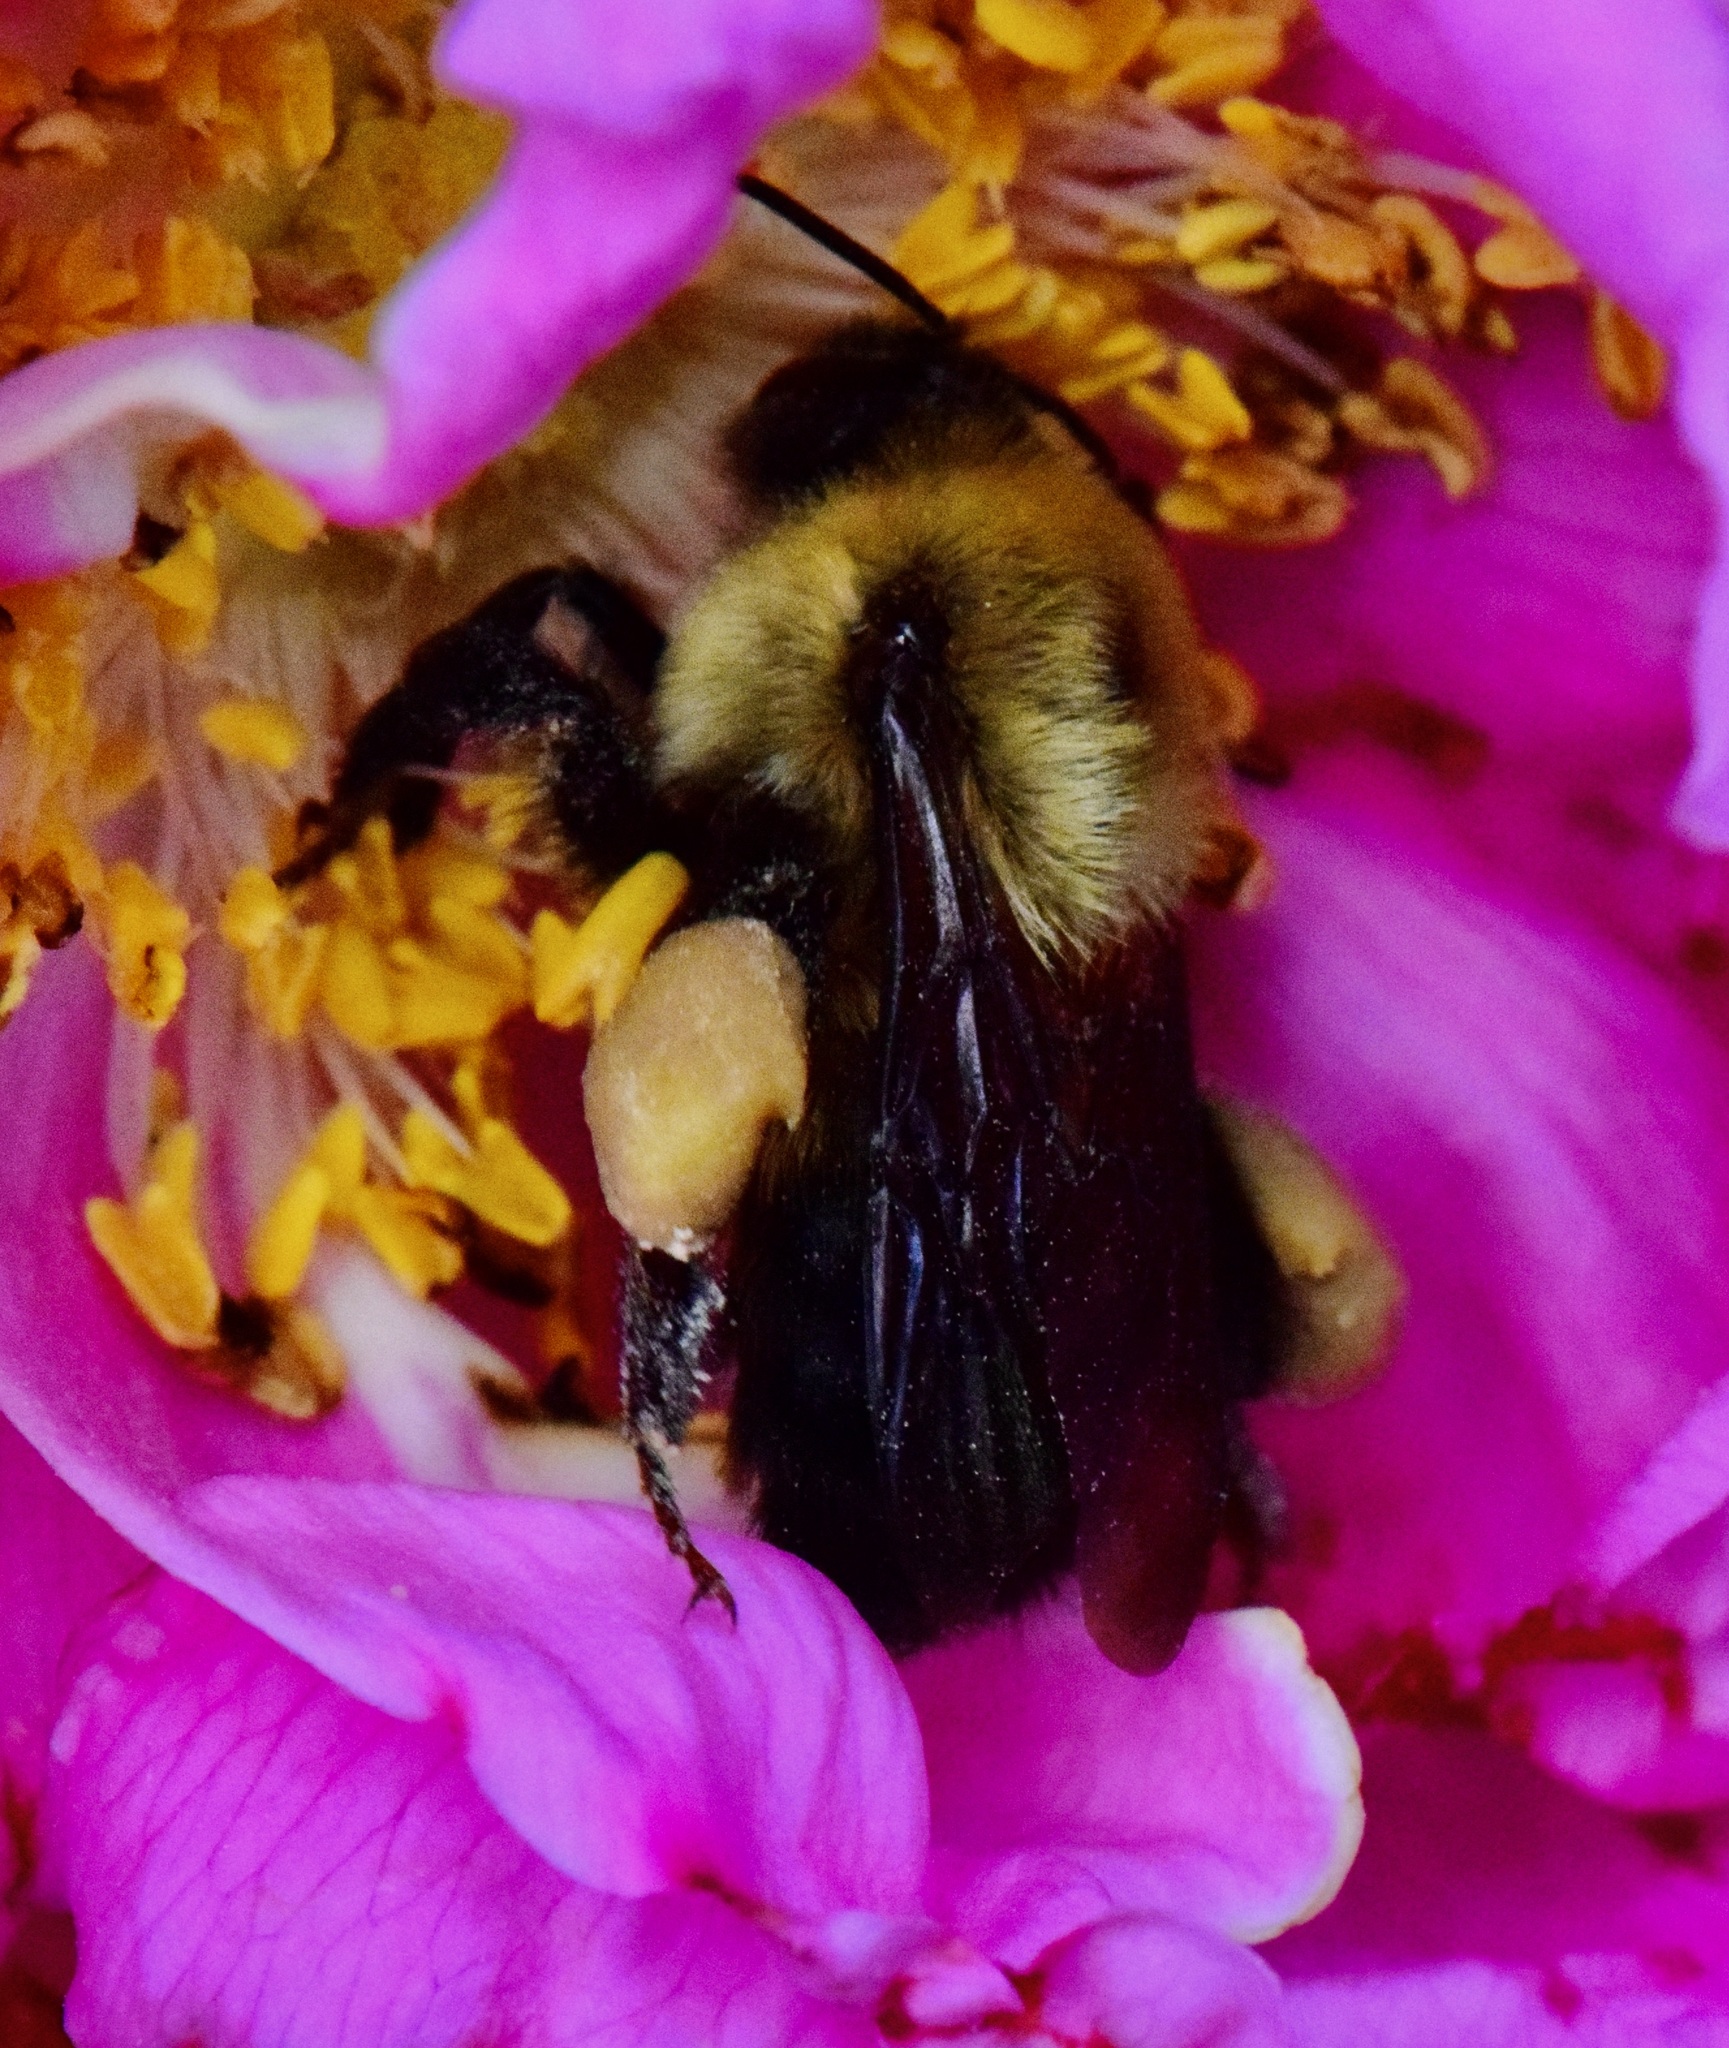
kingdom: Animalia
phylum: Arthropoda
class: Insecta
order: Hymenoptera
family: Apidae
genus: Bombus
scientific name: Bombus griseocollis
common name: Brown-belted bumble bee
